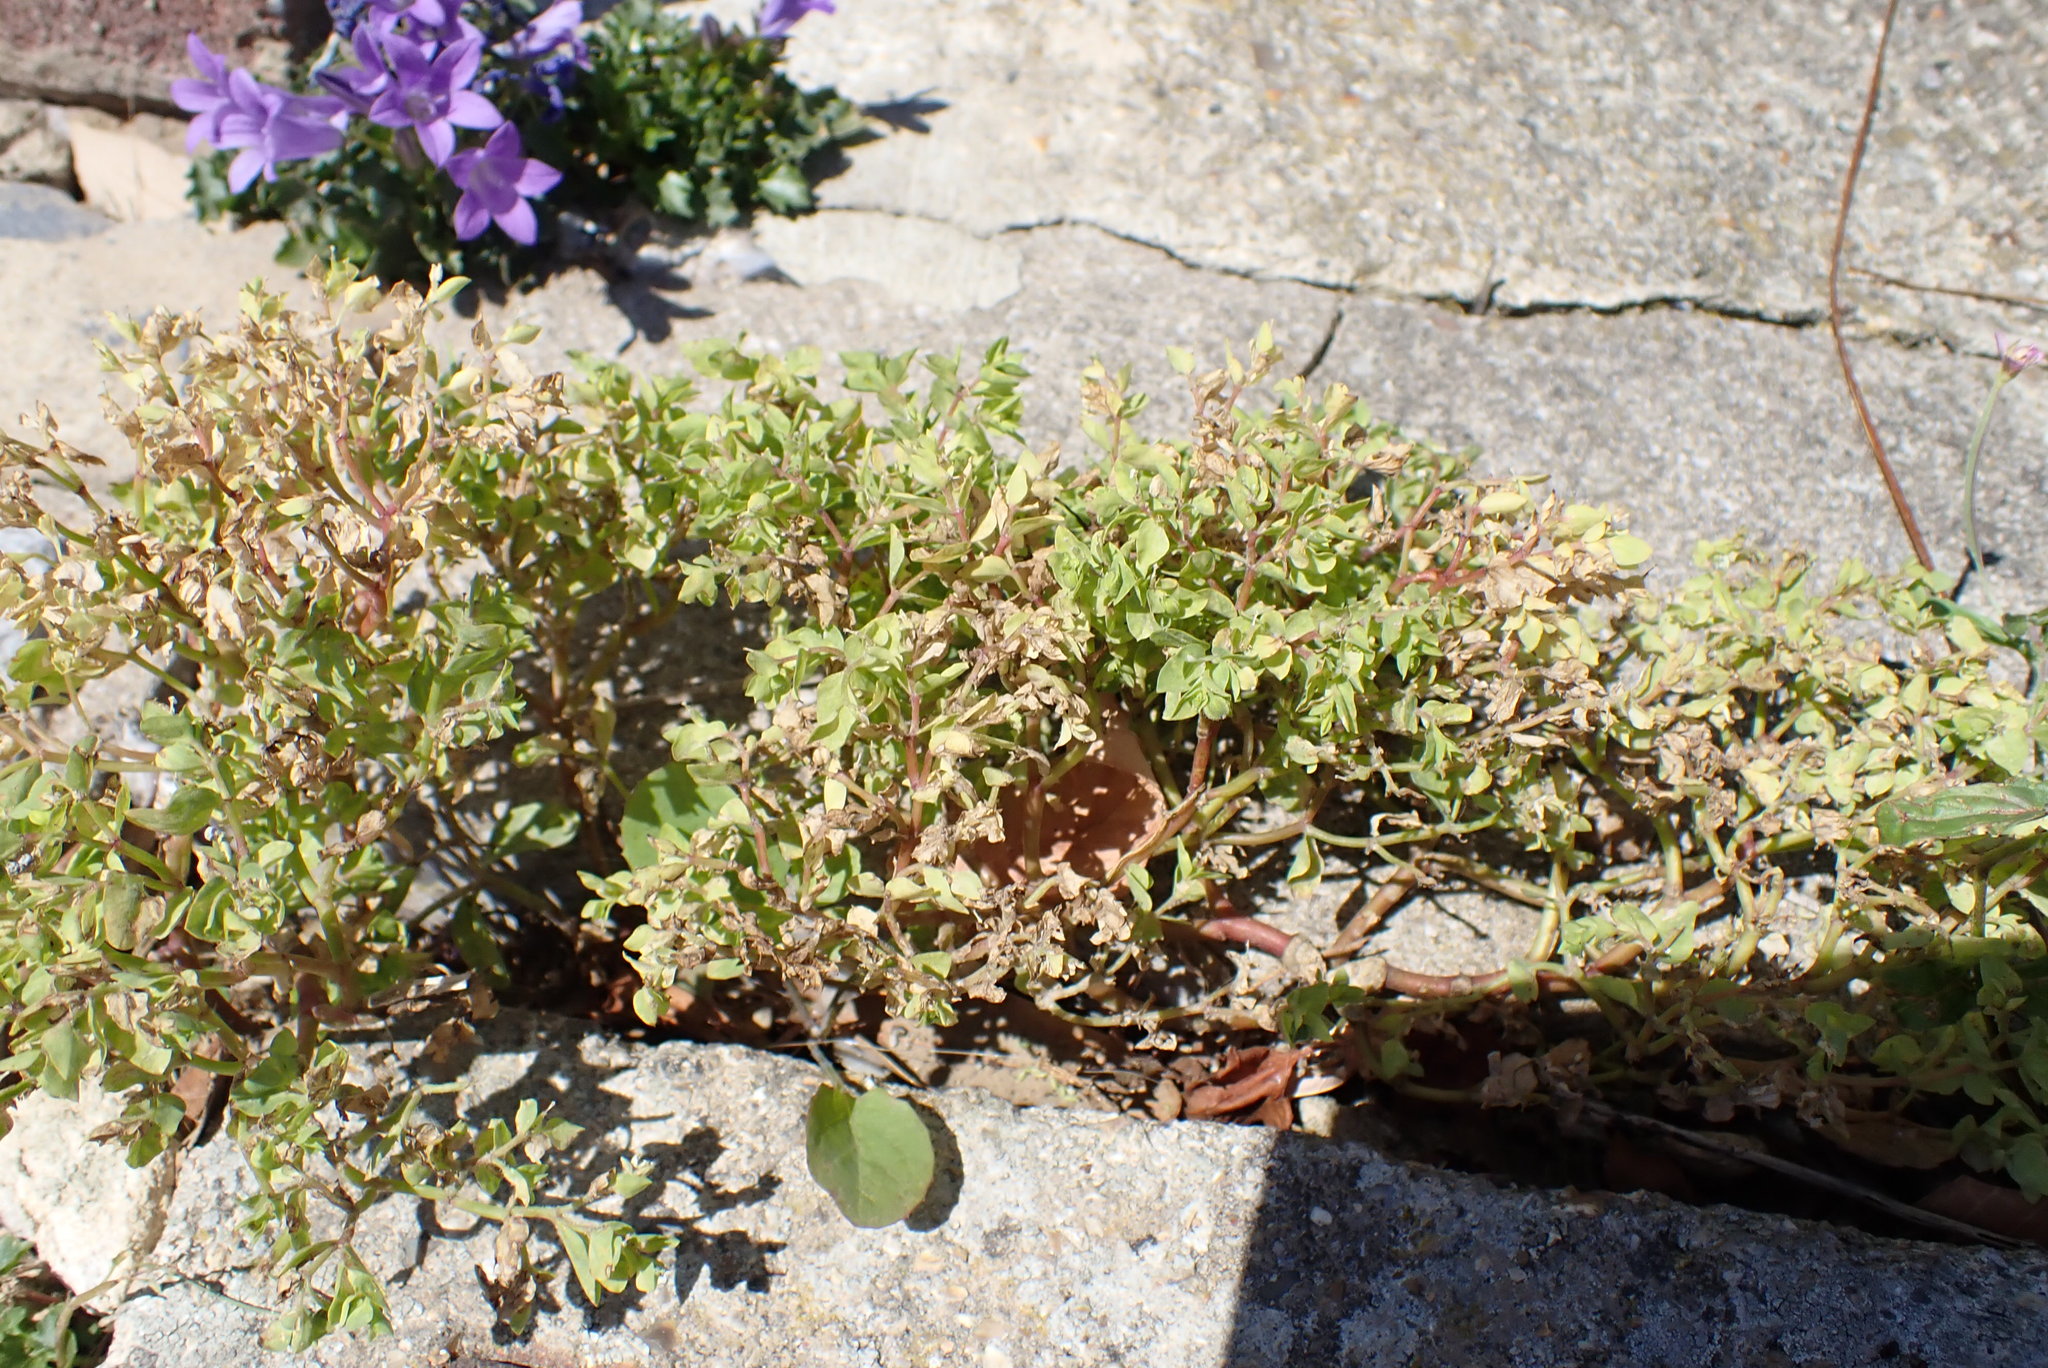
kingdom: Plantae
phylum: Tracheophyta
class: Magnoliopsida
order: Malpighiales
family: Euphorbiaceae
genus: Euphorbia
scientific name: Euphorbia peplus
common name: Petty spurge
